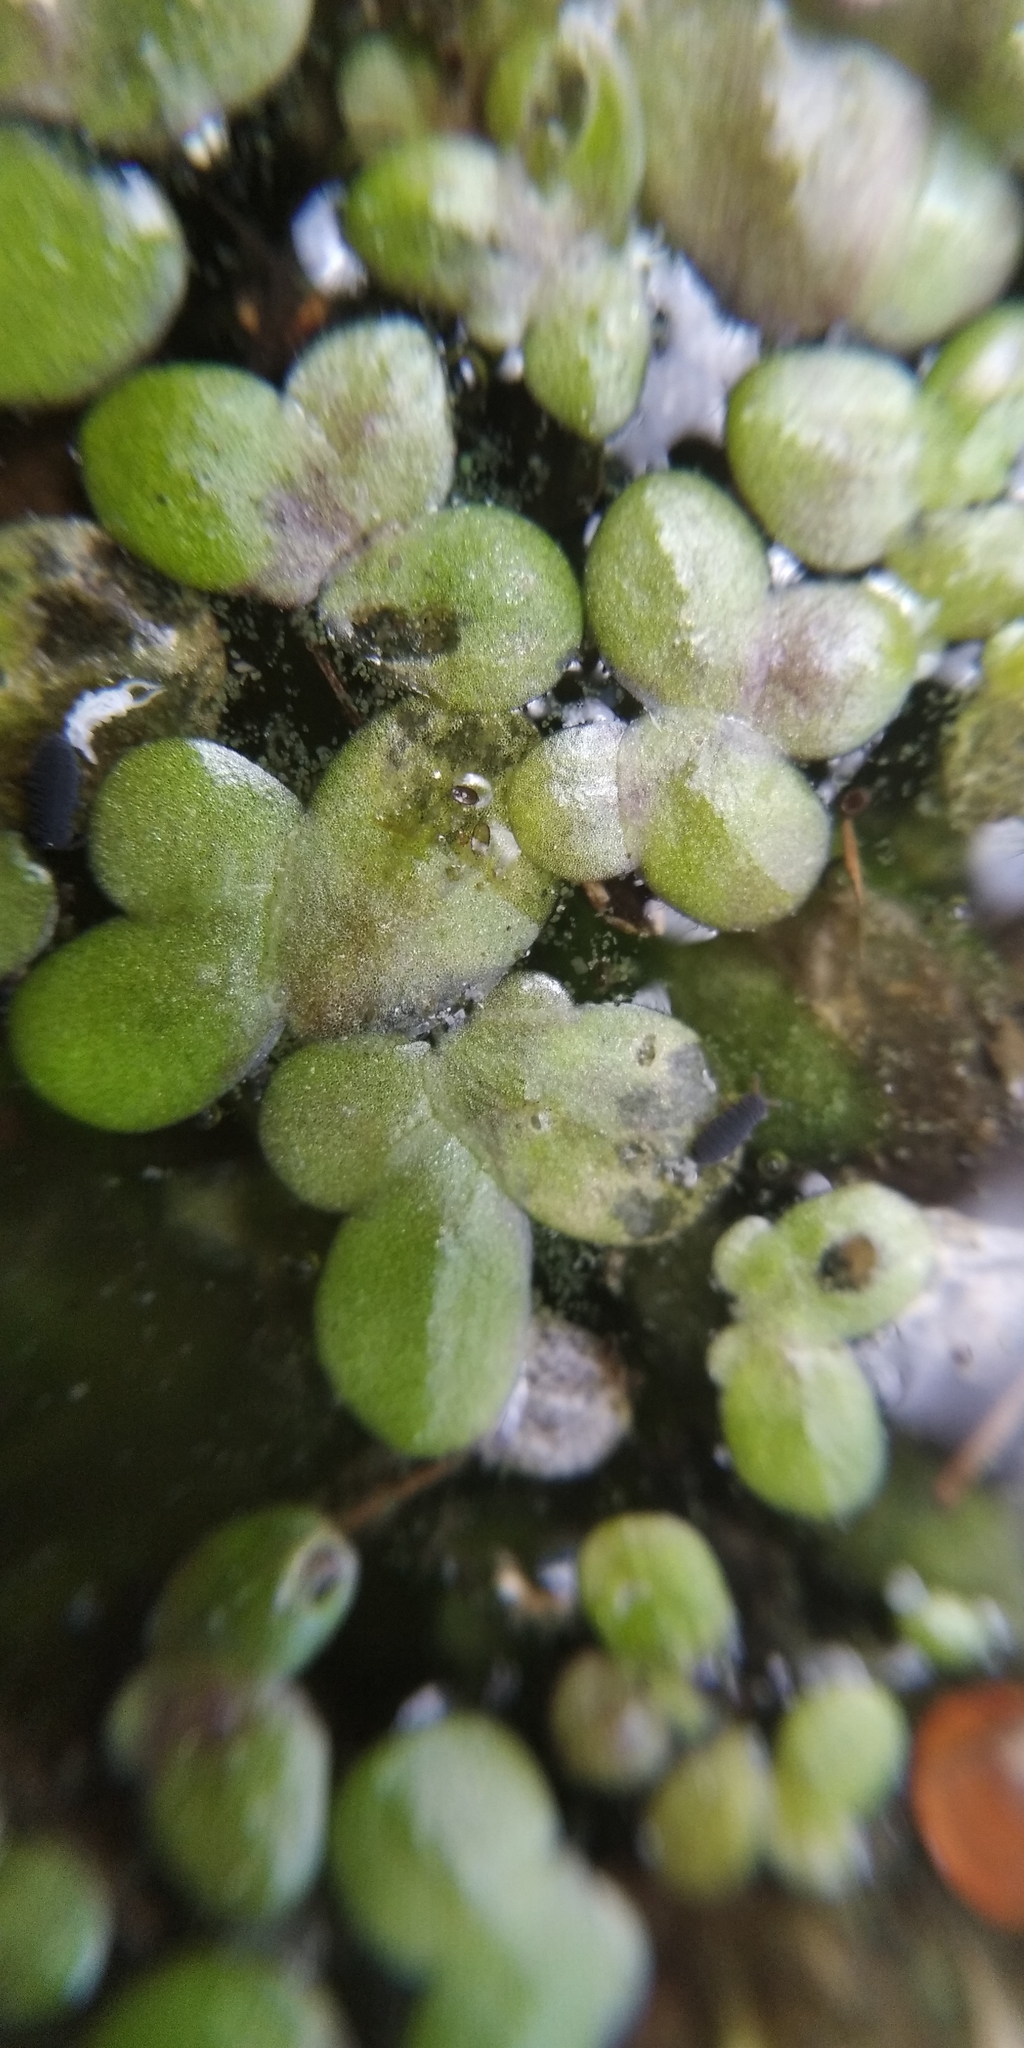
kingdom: Plantae
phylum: Tracheophyta
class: Liliopsida
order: Alismatales
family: Araceae
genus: Lemna
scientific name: Lemna minor
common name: Common duckweed
